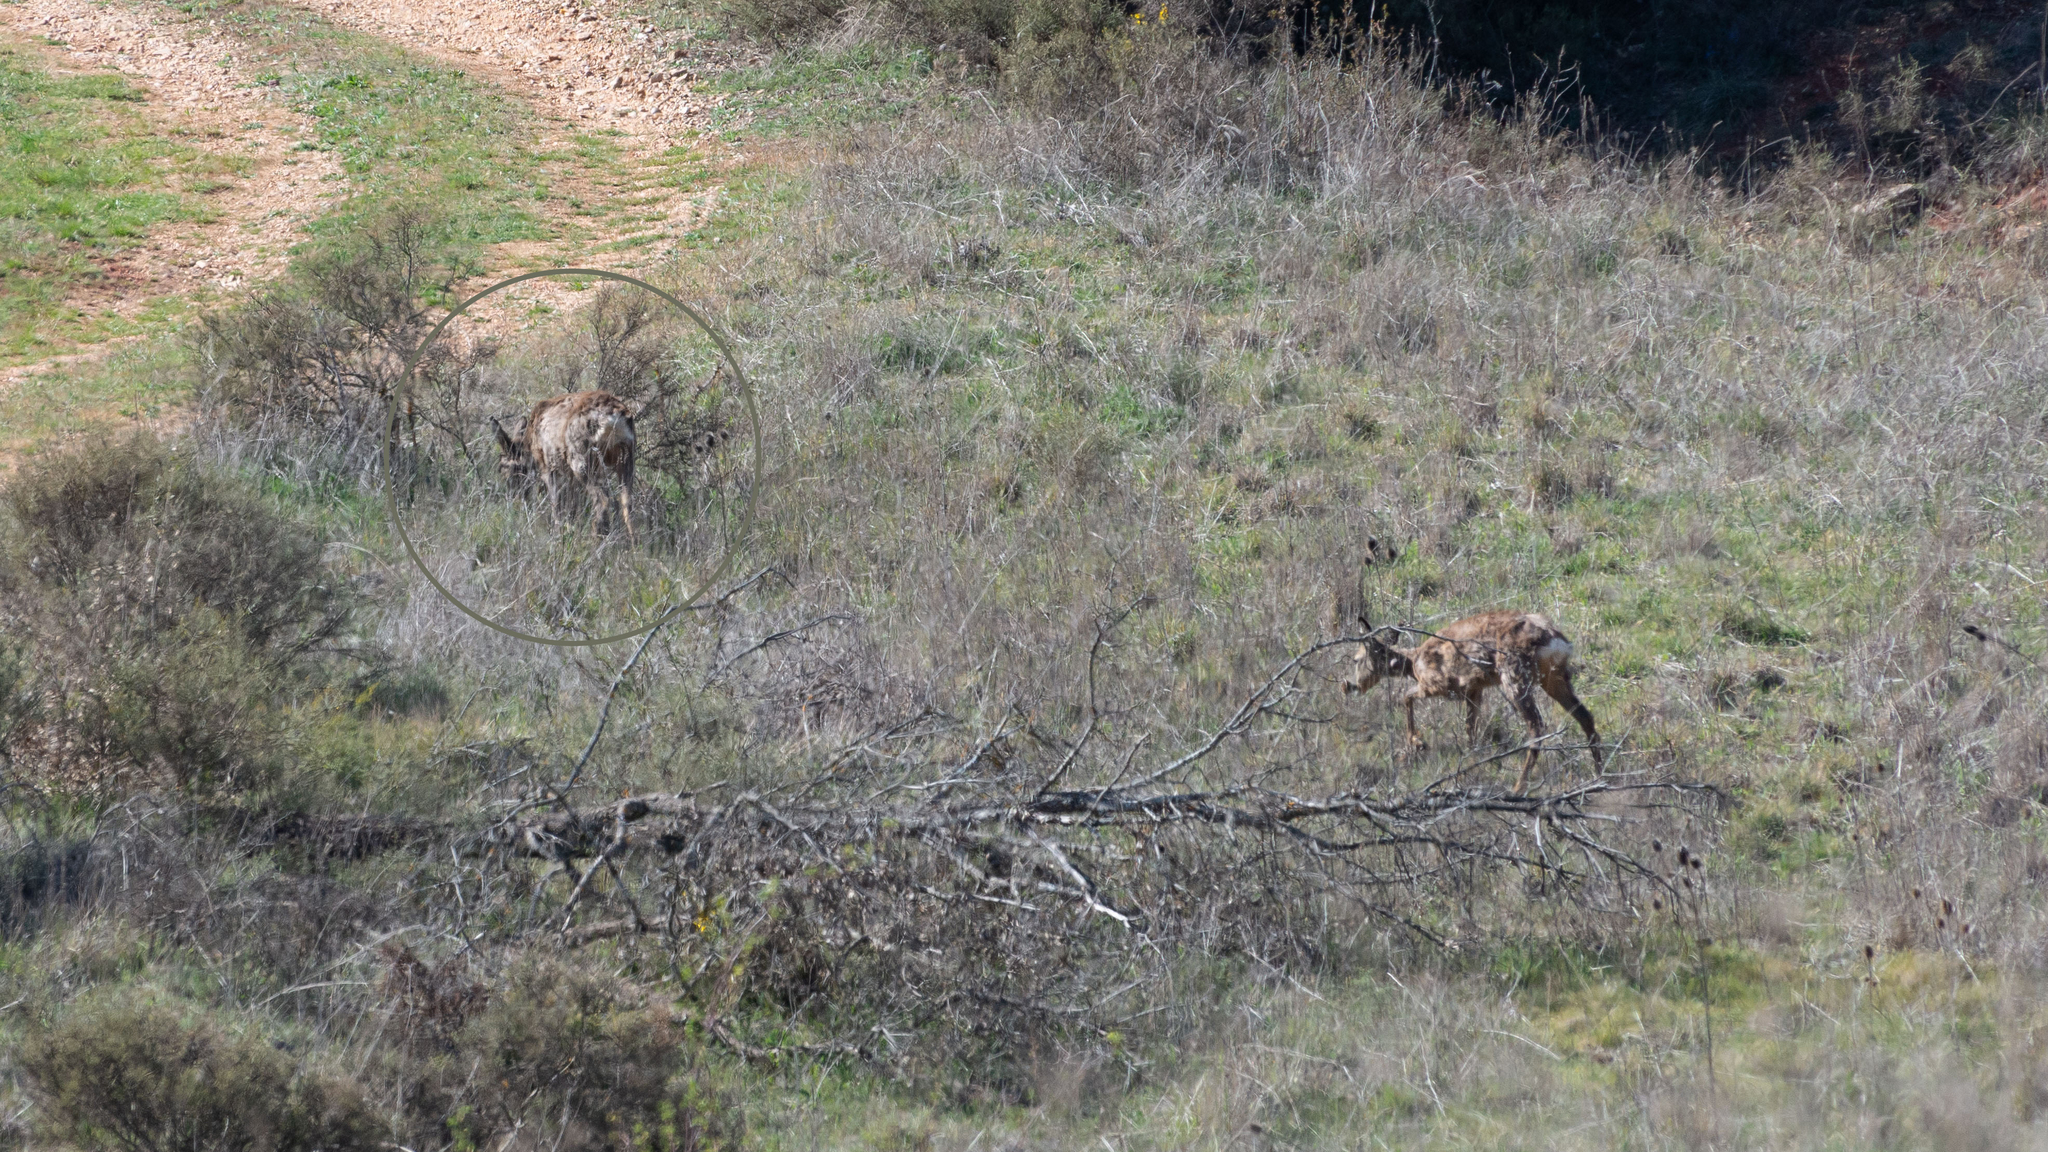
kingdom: Animalia
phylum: Chordata
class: Mammalia
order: Artiodactyla
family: Cervidae
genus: Capreolus
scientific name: Capreolus capreolus
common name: Western roe deer
